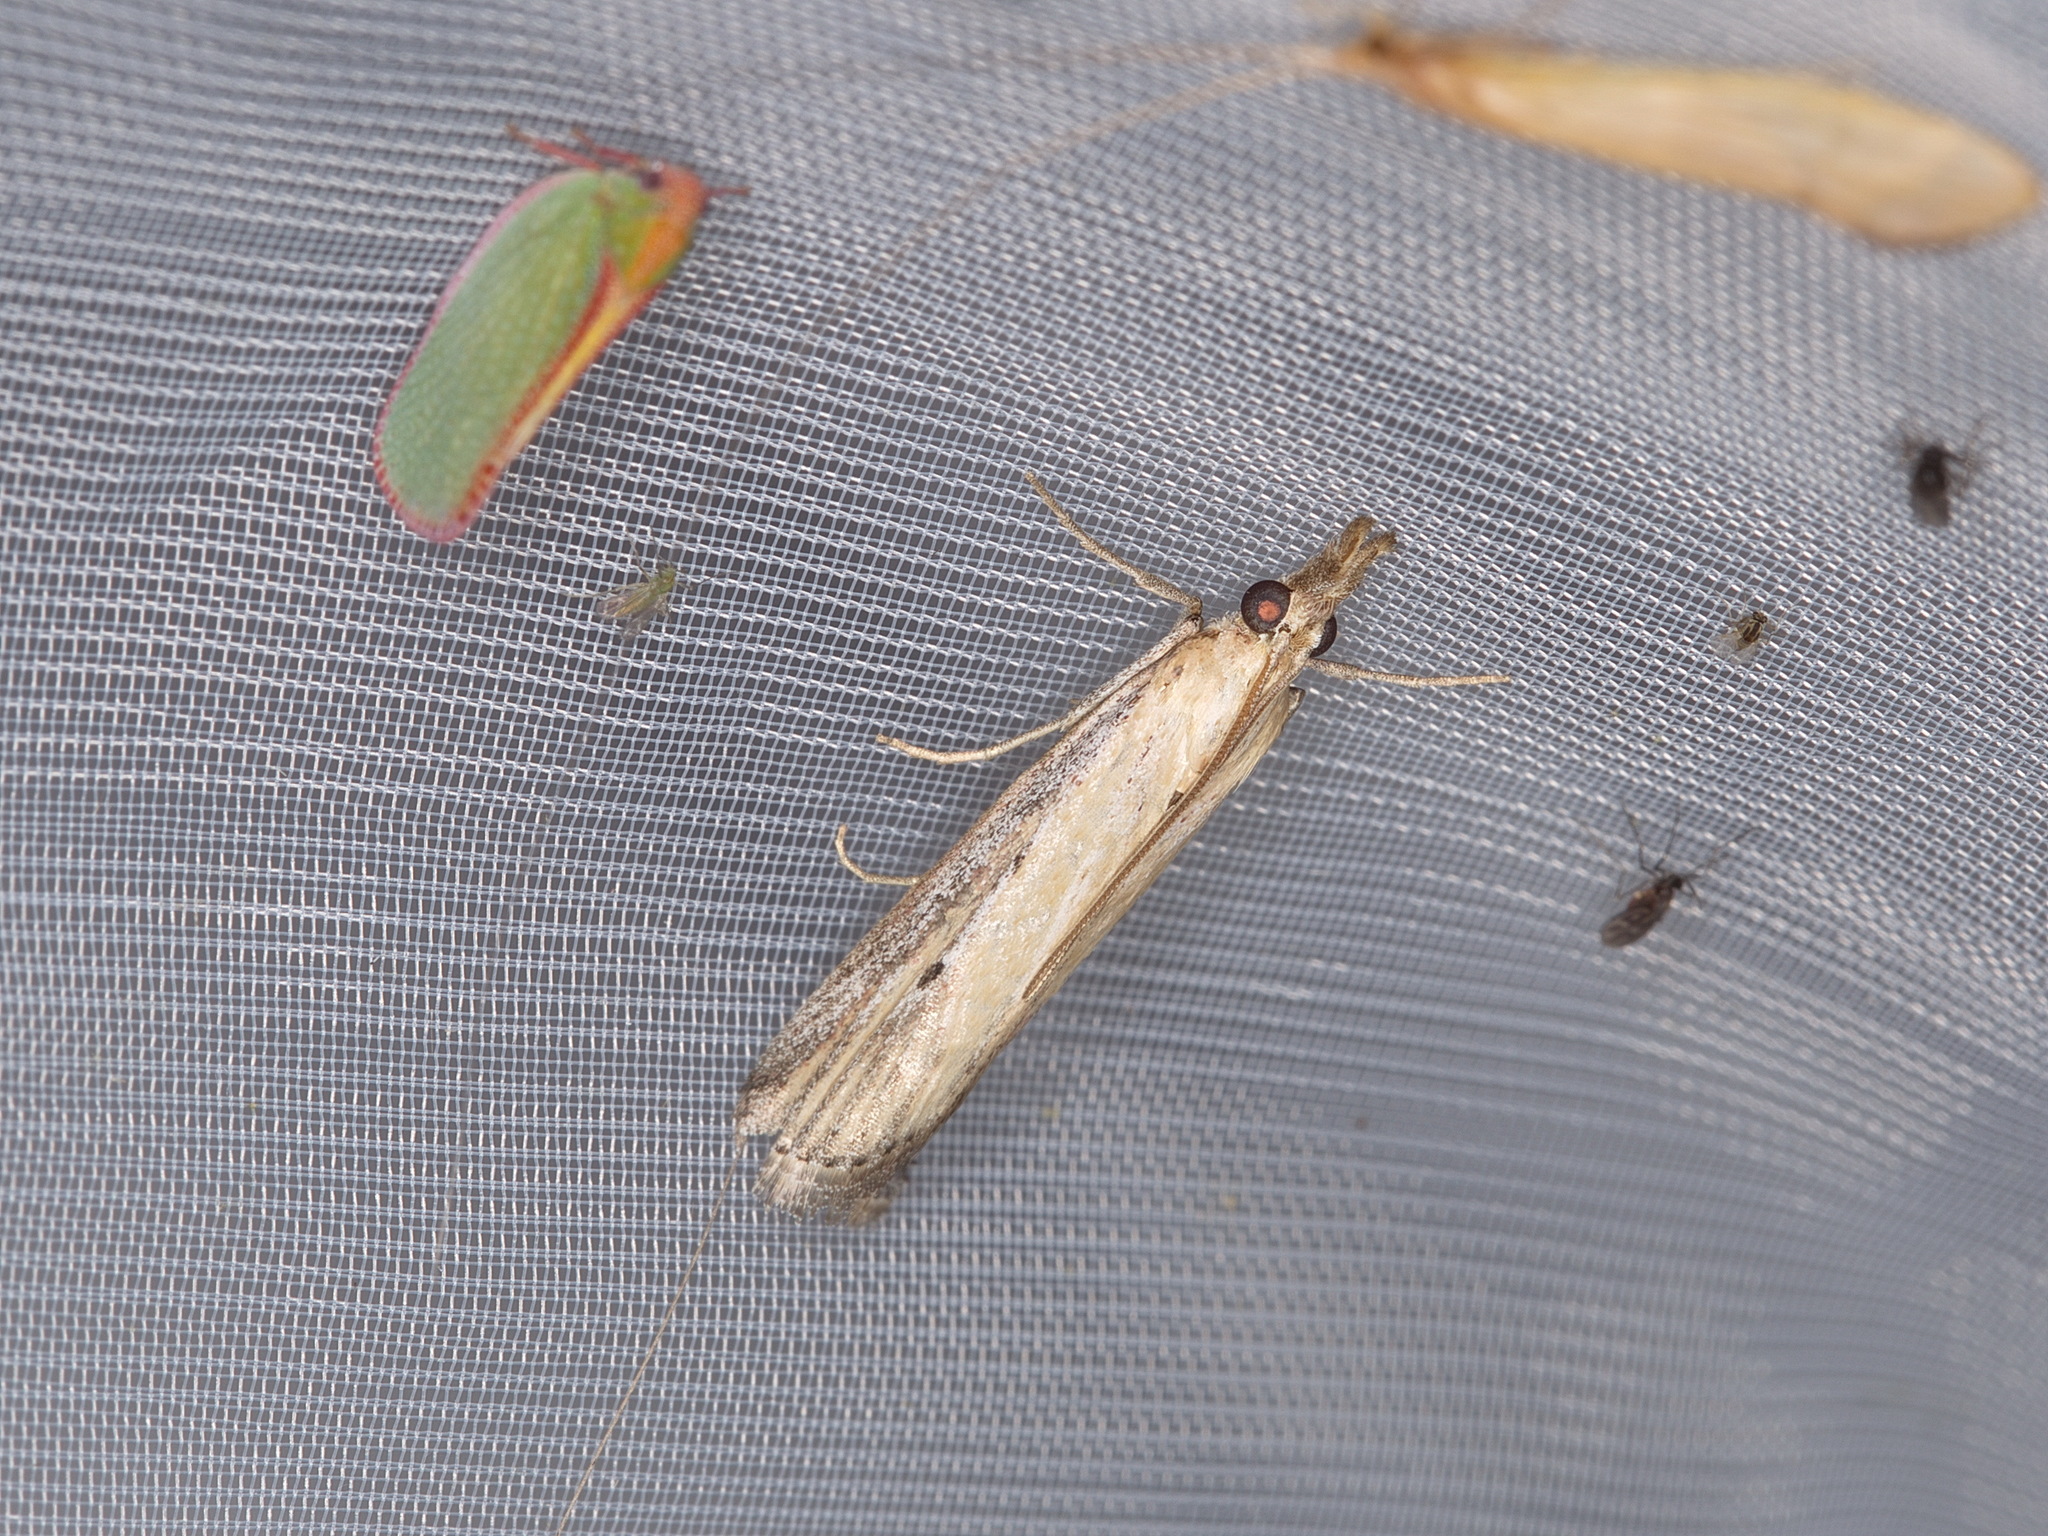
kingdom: Animalia
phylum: Arthropoda
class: Insecta
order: Lepidoptera
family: Pyralidae
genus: Faveria
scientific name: Faveria tritalis
